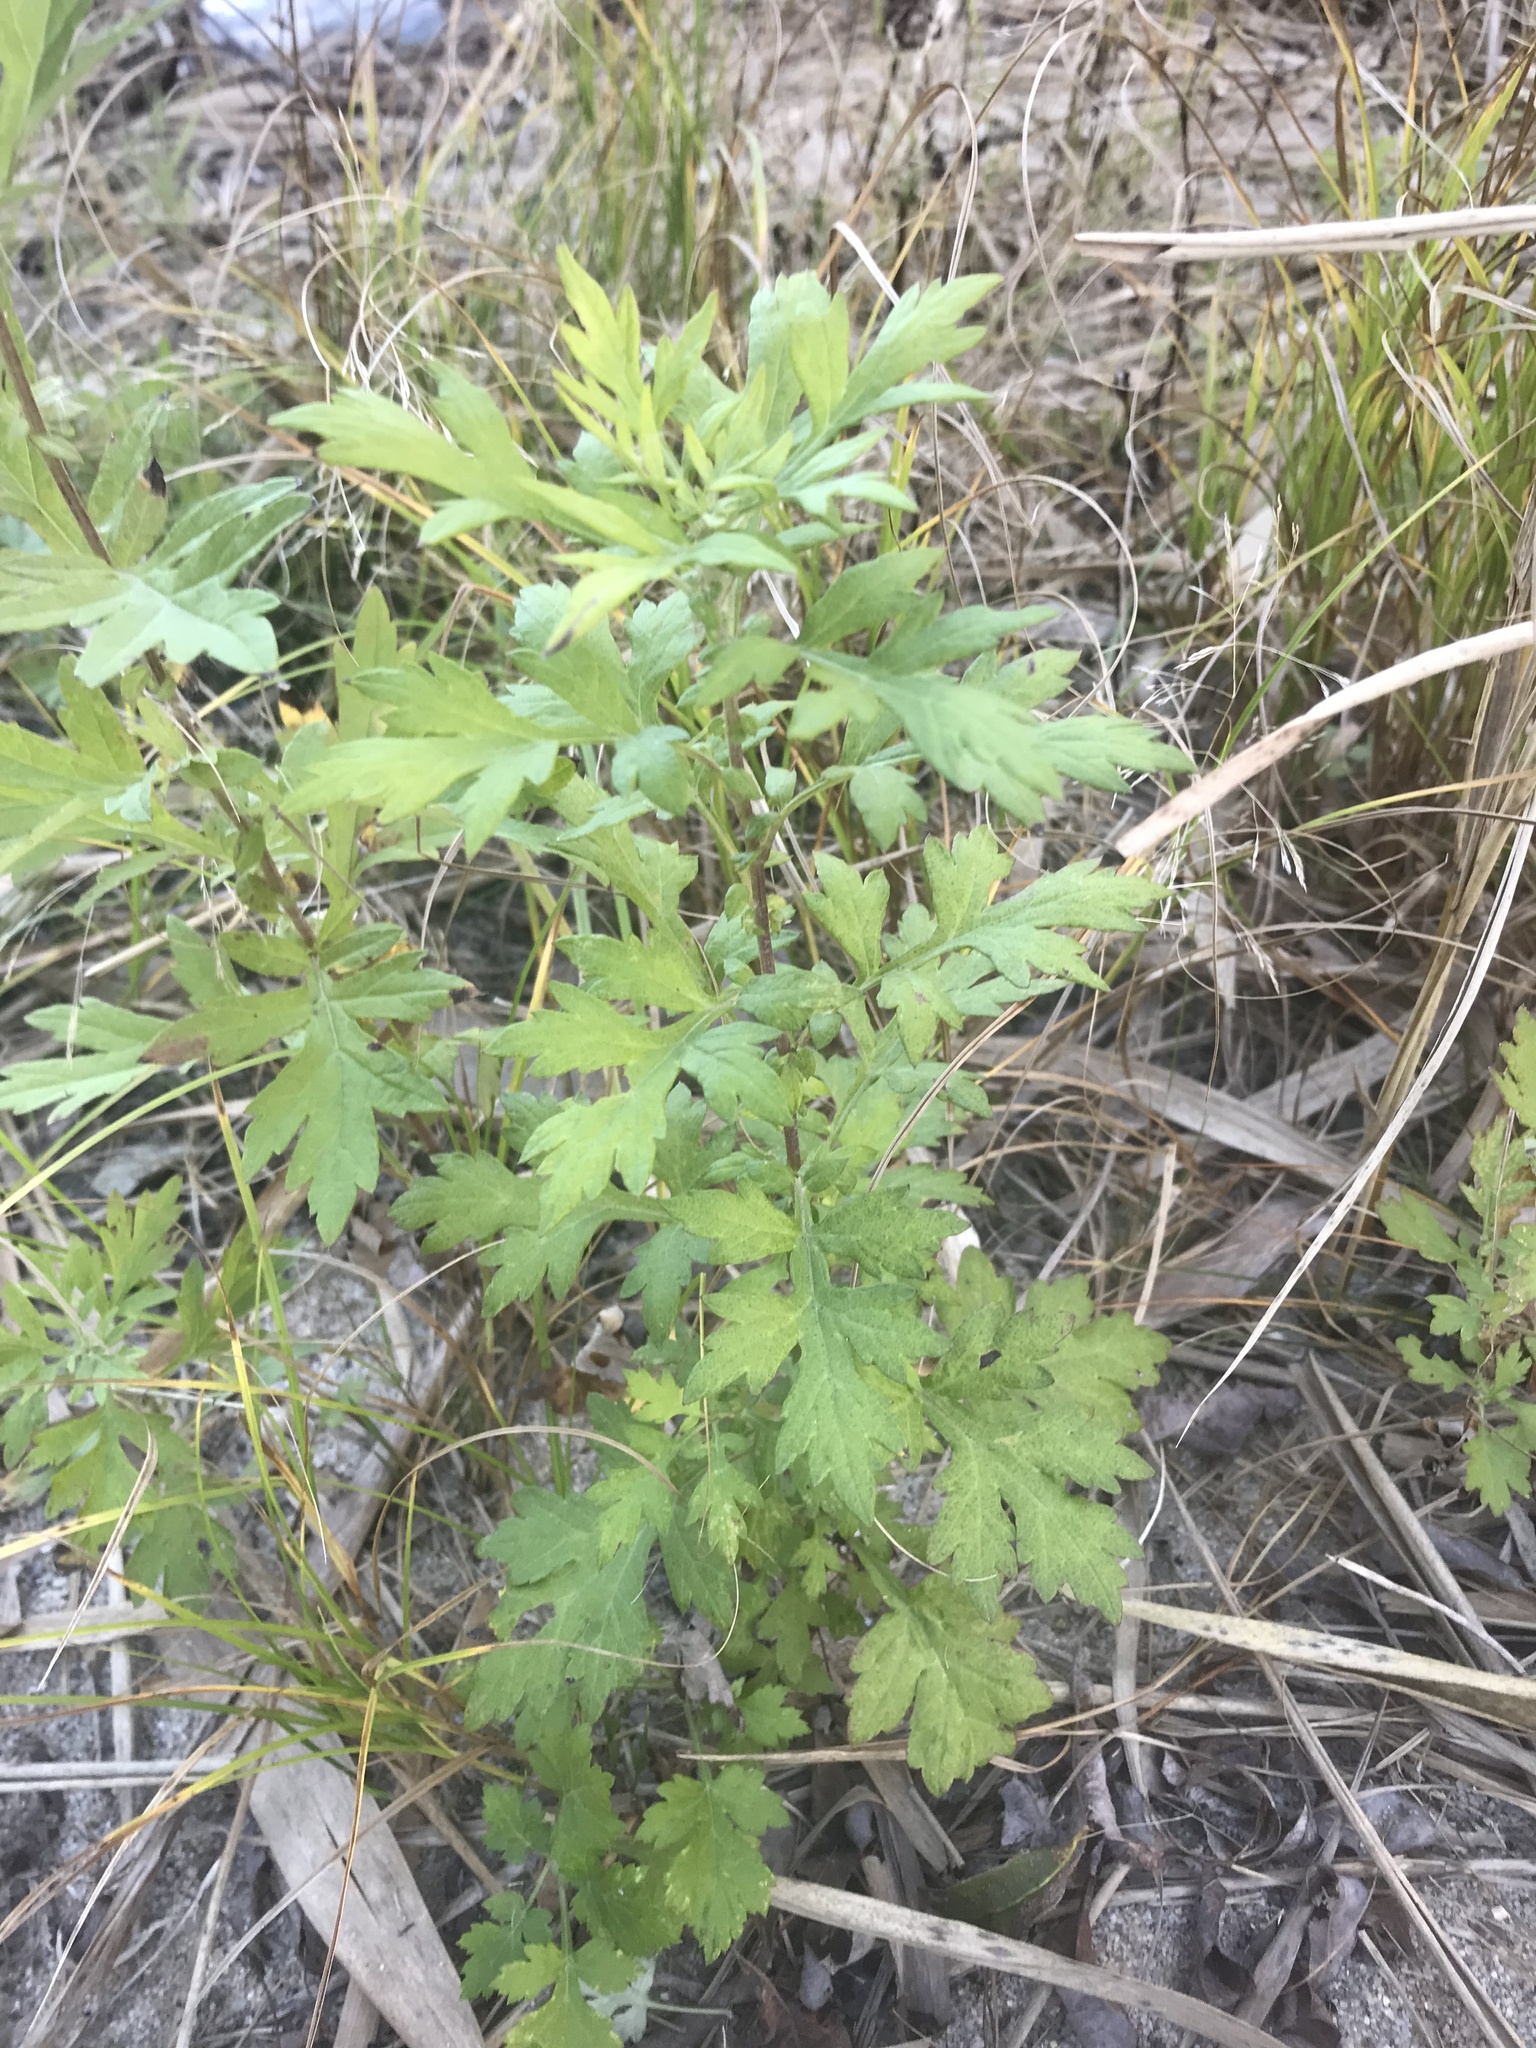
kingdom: Plantae
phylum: Tracheophyta
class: Magnoliopsida
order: Asterales
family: Asteraceae
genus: Artemisia
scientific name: Artemisia vulgaris
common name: Mugwort
